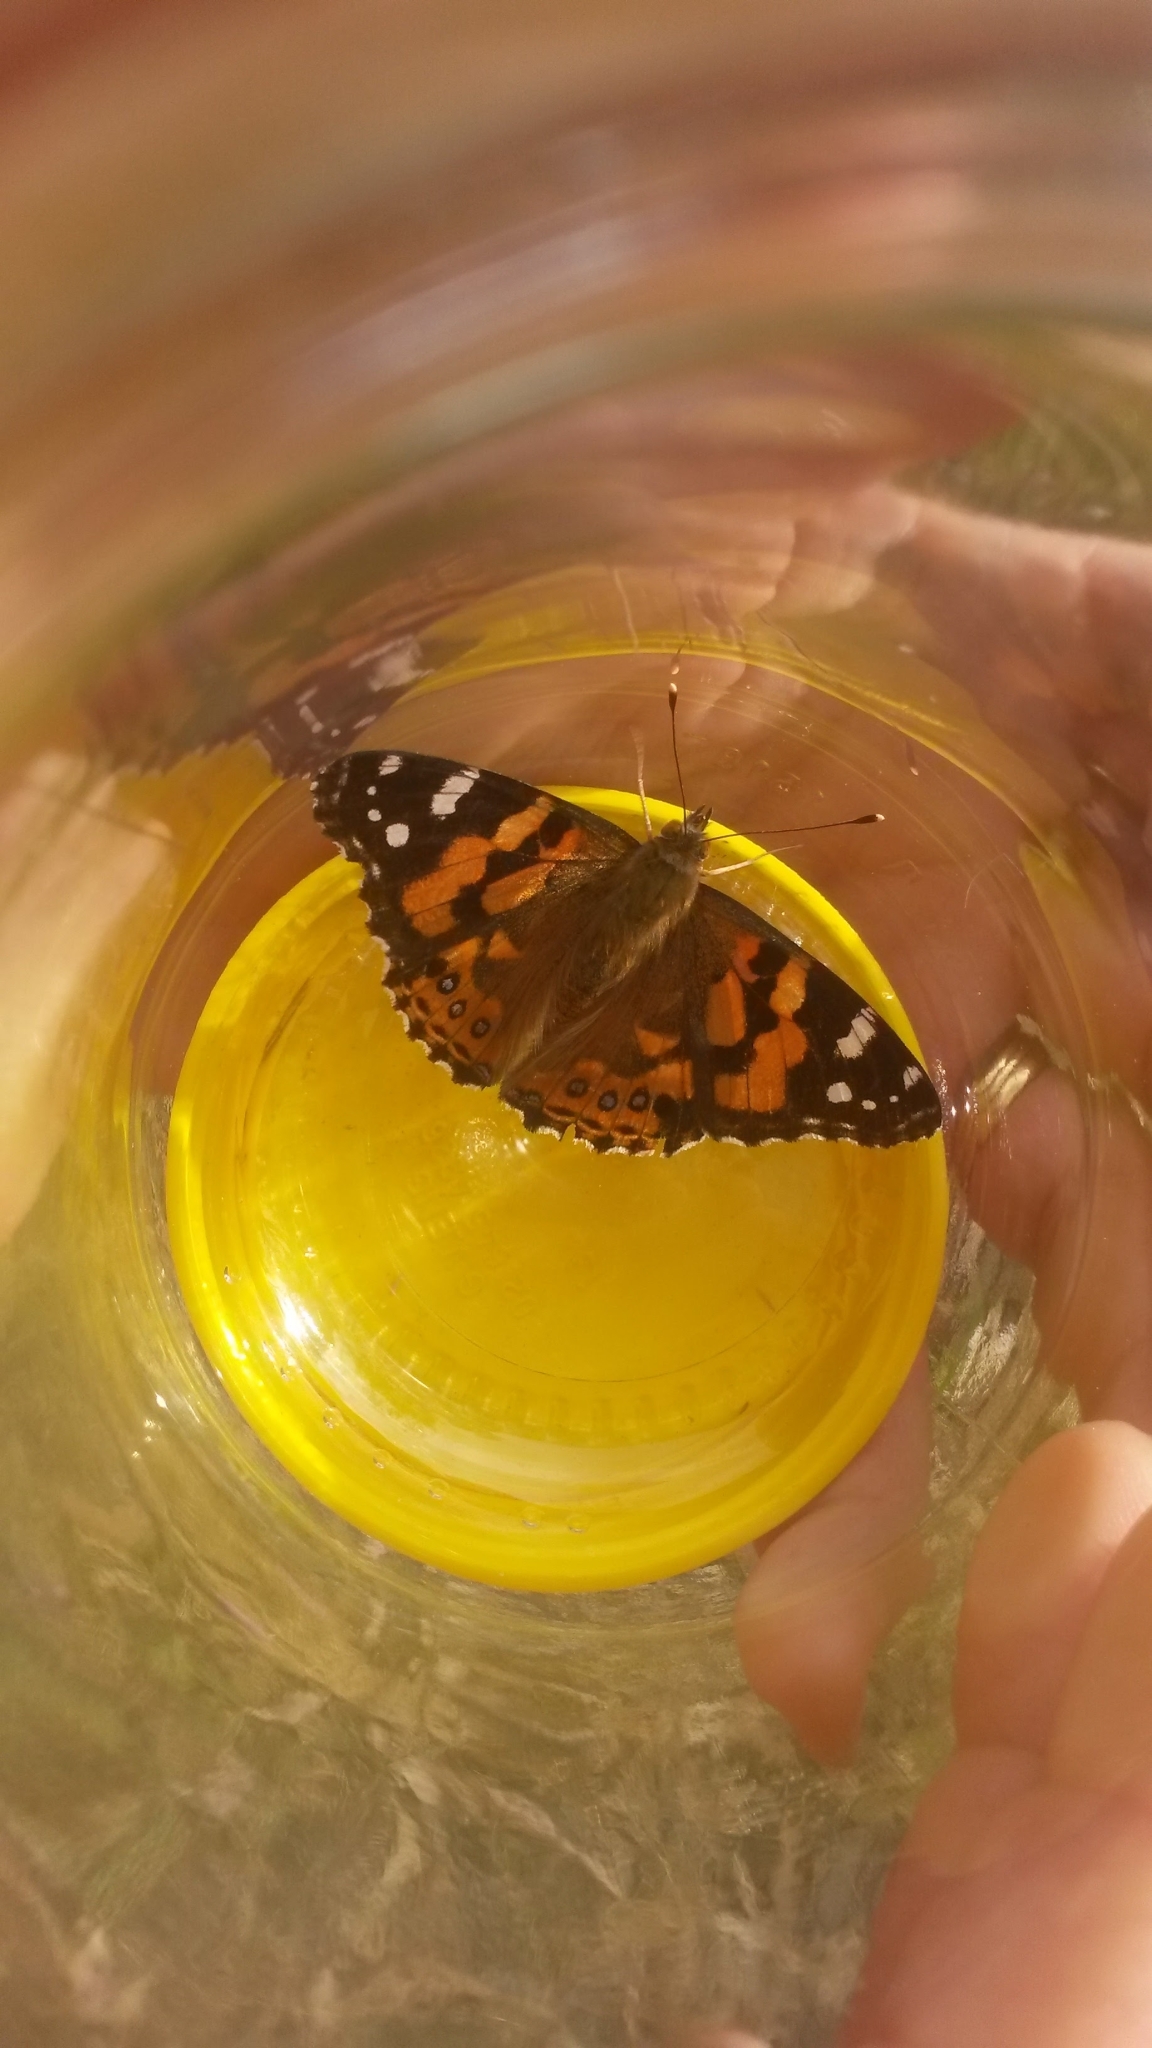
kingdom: Animalia
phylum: Arthropoda
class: Insecta
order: Lepidoptera
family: Nymphalidae
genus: Vanessa
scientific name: Vanessa kershawi
